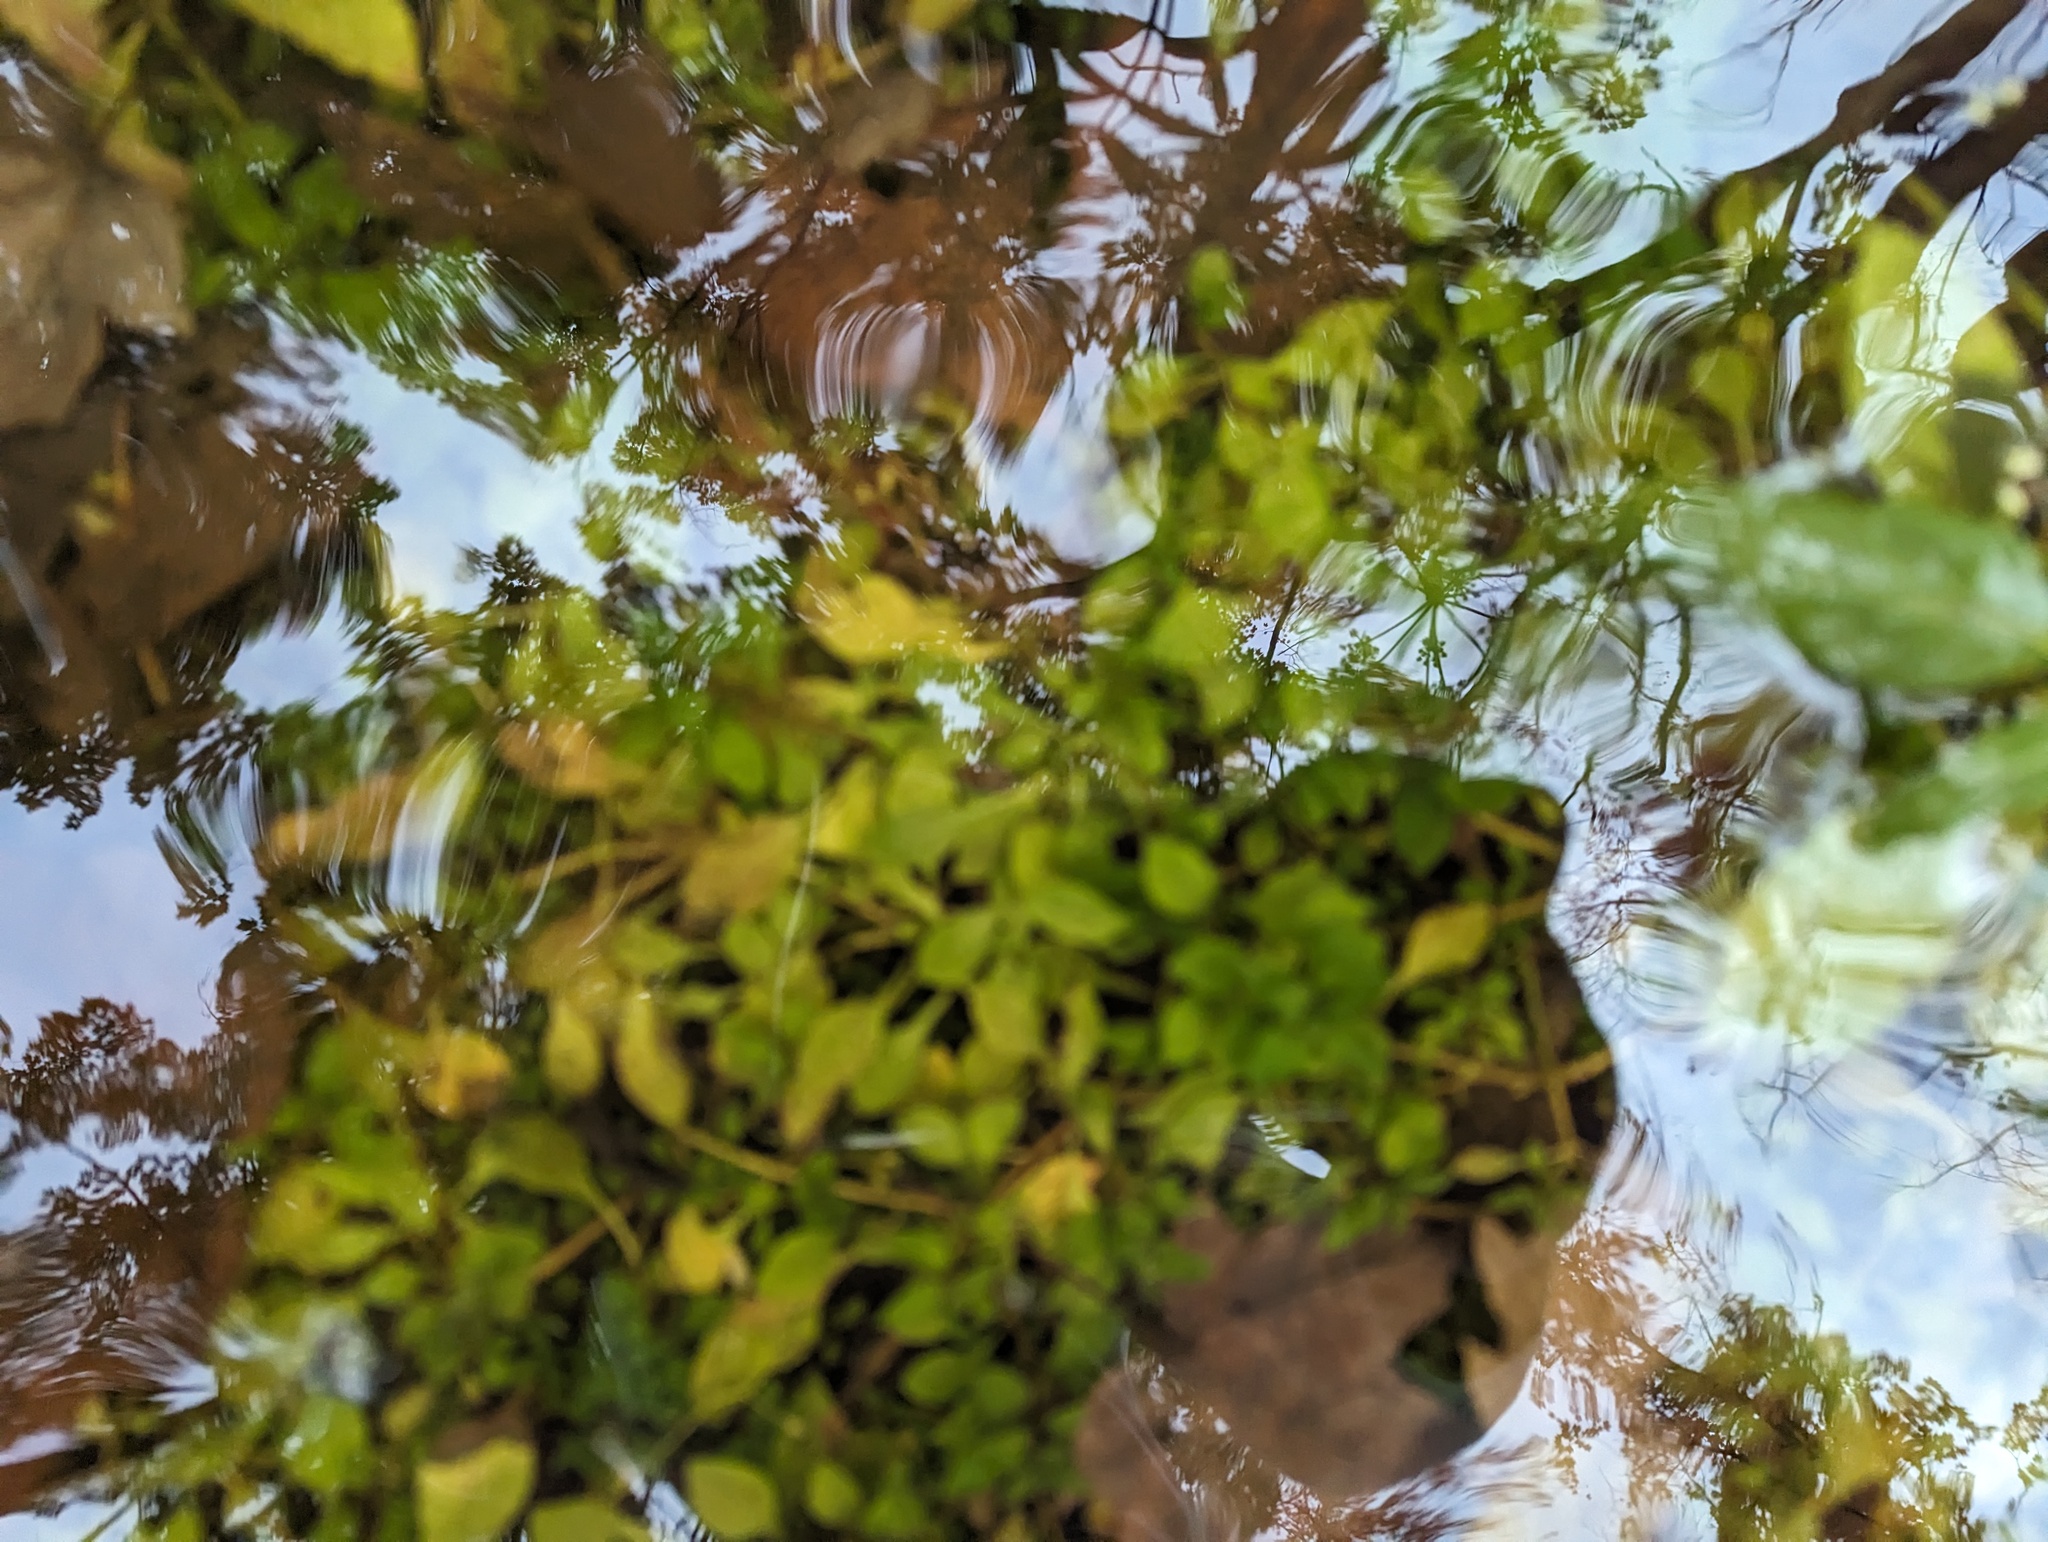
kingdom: Plantae
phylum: Tracheophyta
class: Magnoliopsida
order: Myrtales
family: Onagraceae
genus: Ludwigia
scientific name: Ludwigia palustris
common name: Hampshire-purslane
